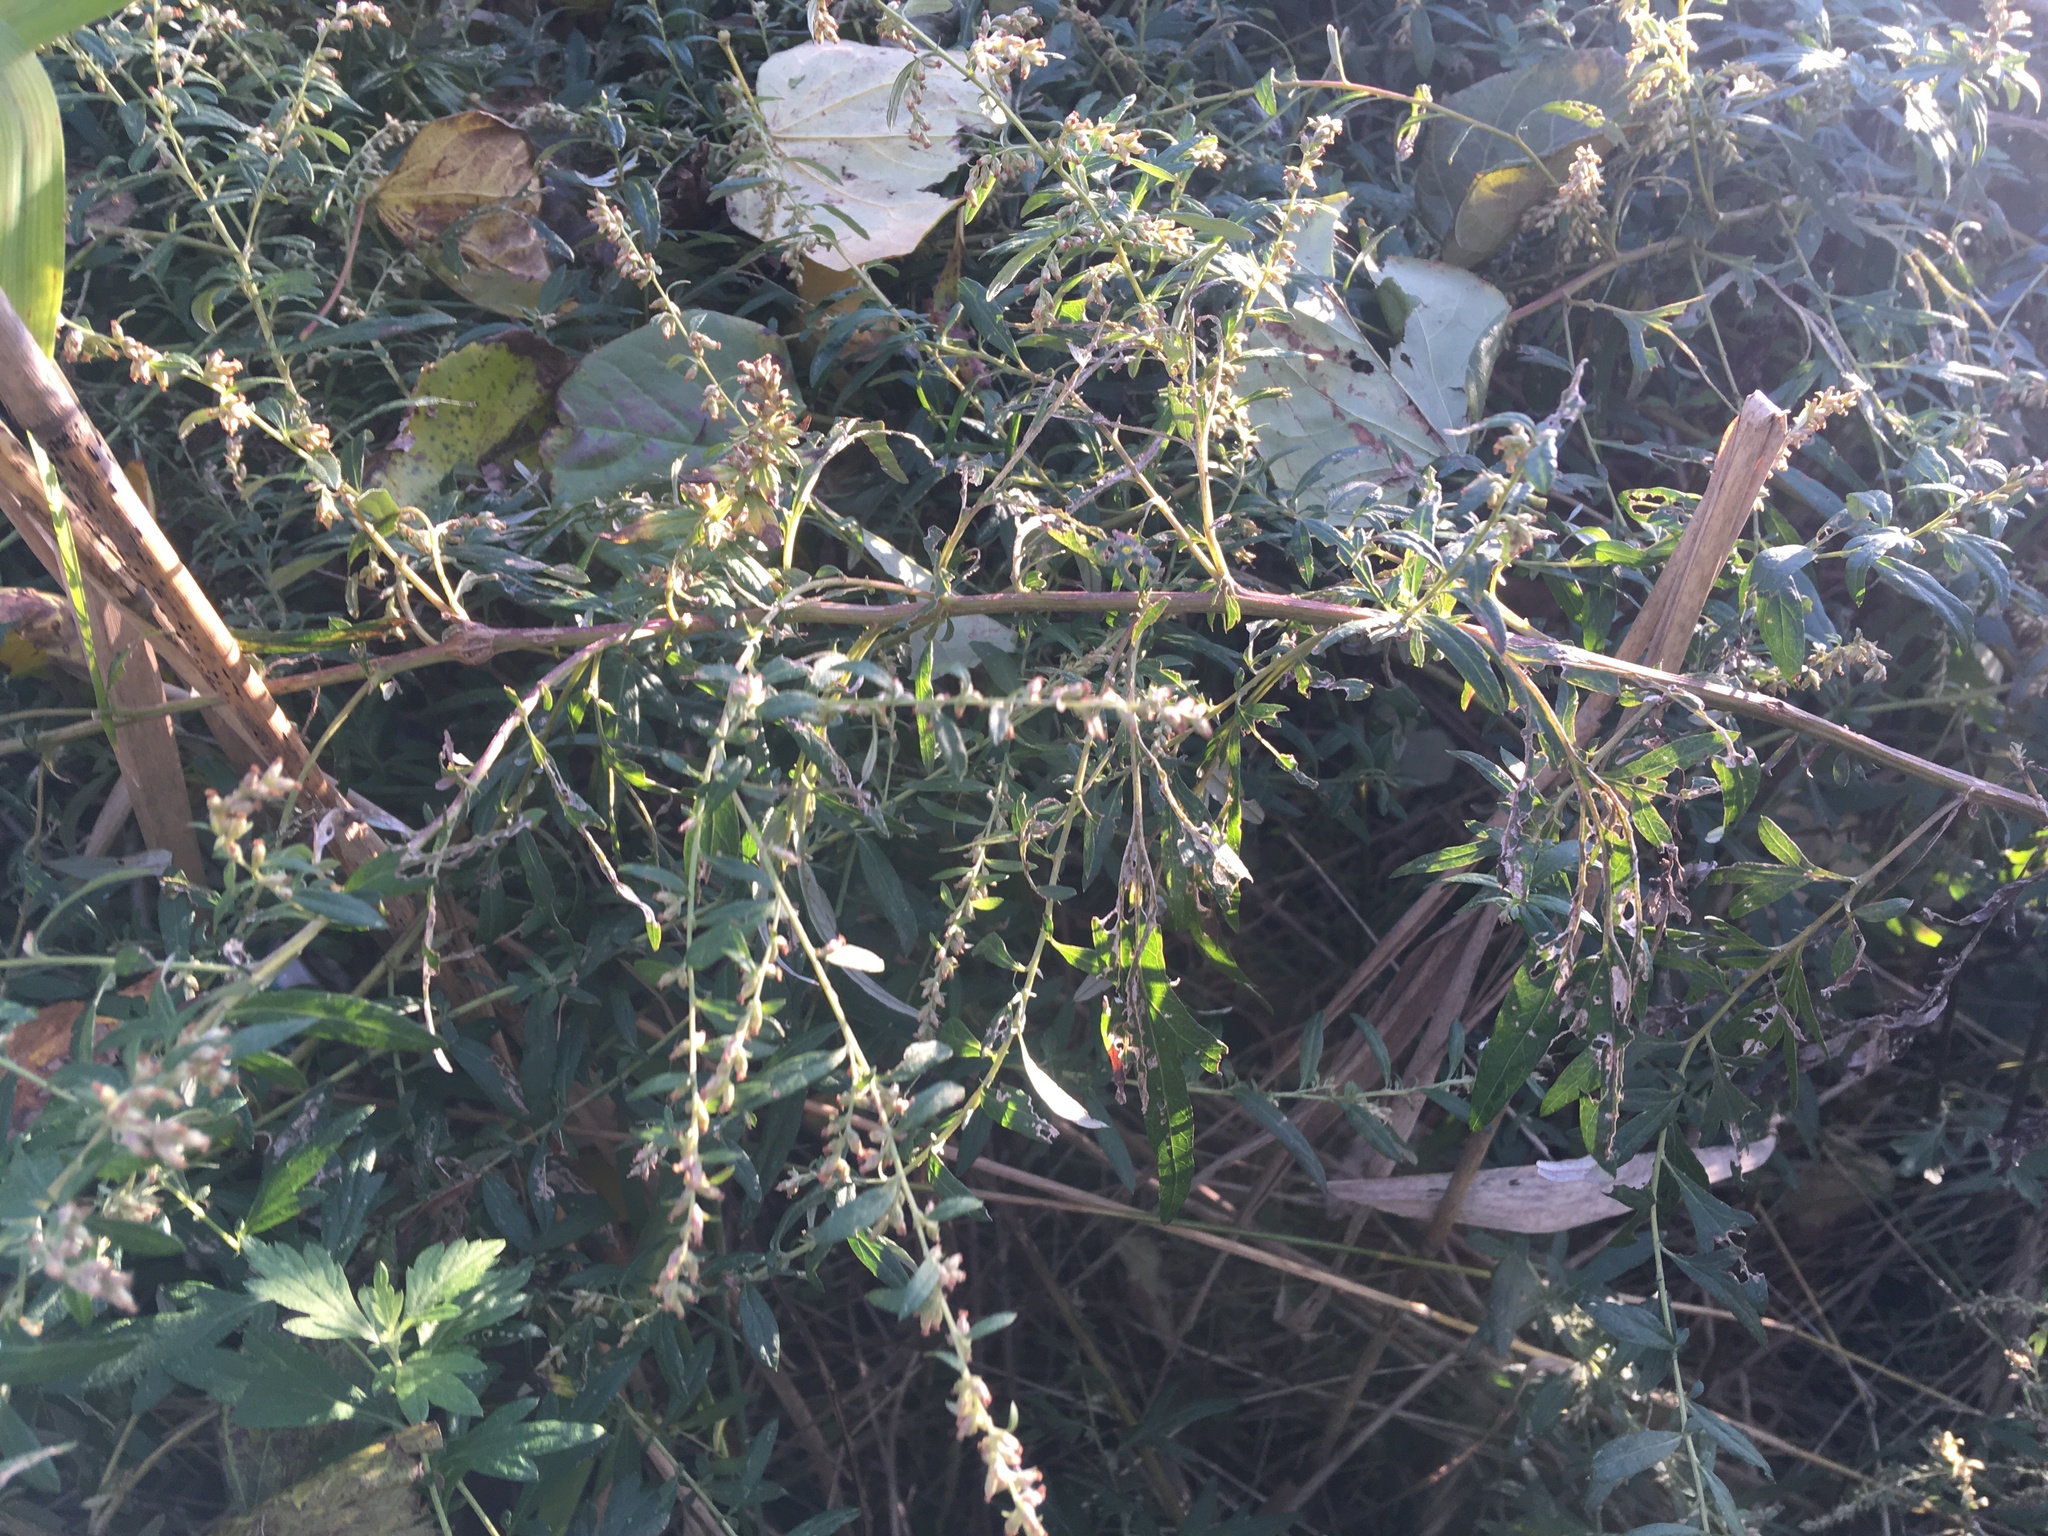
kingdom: Plantae
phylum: Tracheophyta
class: Magnoliopsida
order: Asterales
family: Asteraceae
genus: Artemisia
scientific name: Artemisia vulgaris
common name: Mugwort
